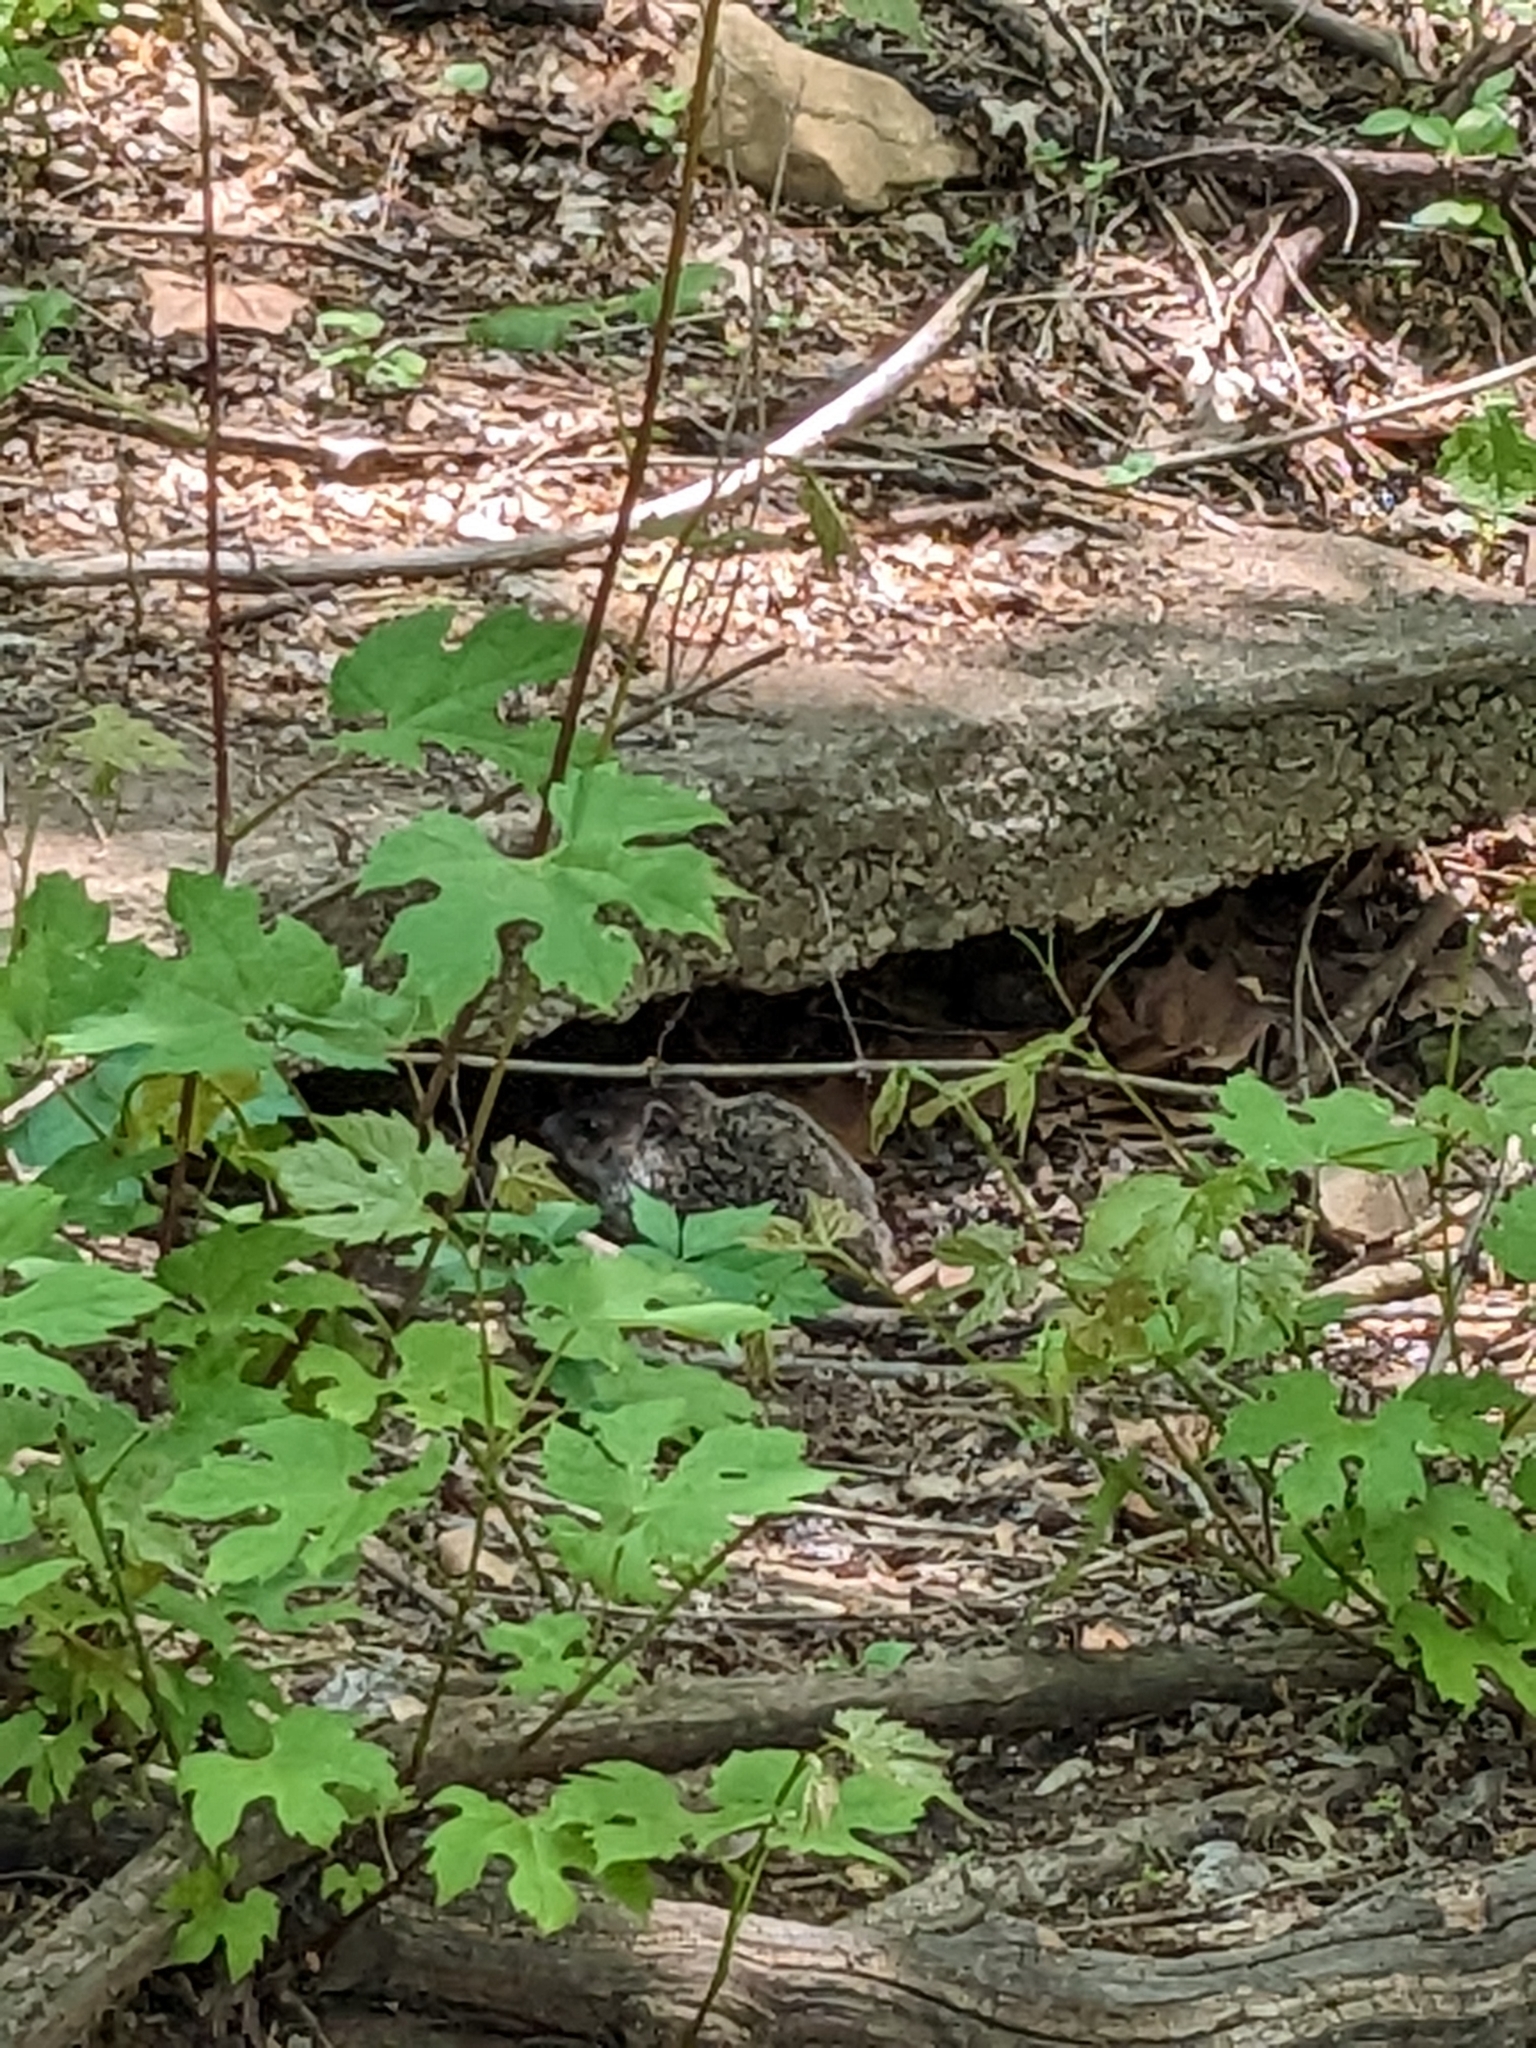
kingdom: Animalia
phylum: Chordata
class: Mammalia
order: Rodentia
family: Sciuridae
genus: Marmota
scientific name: Marmota monax
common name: Groundhog
